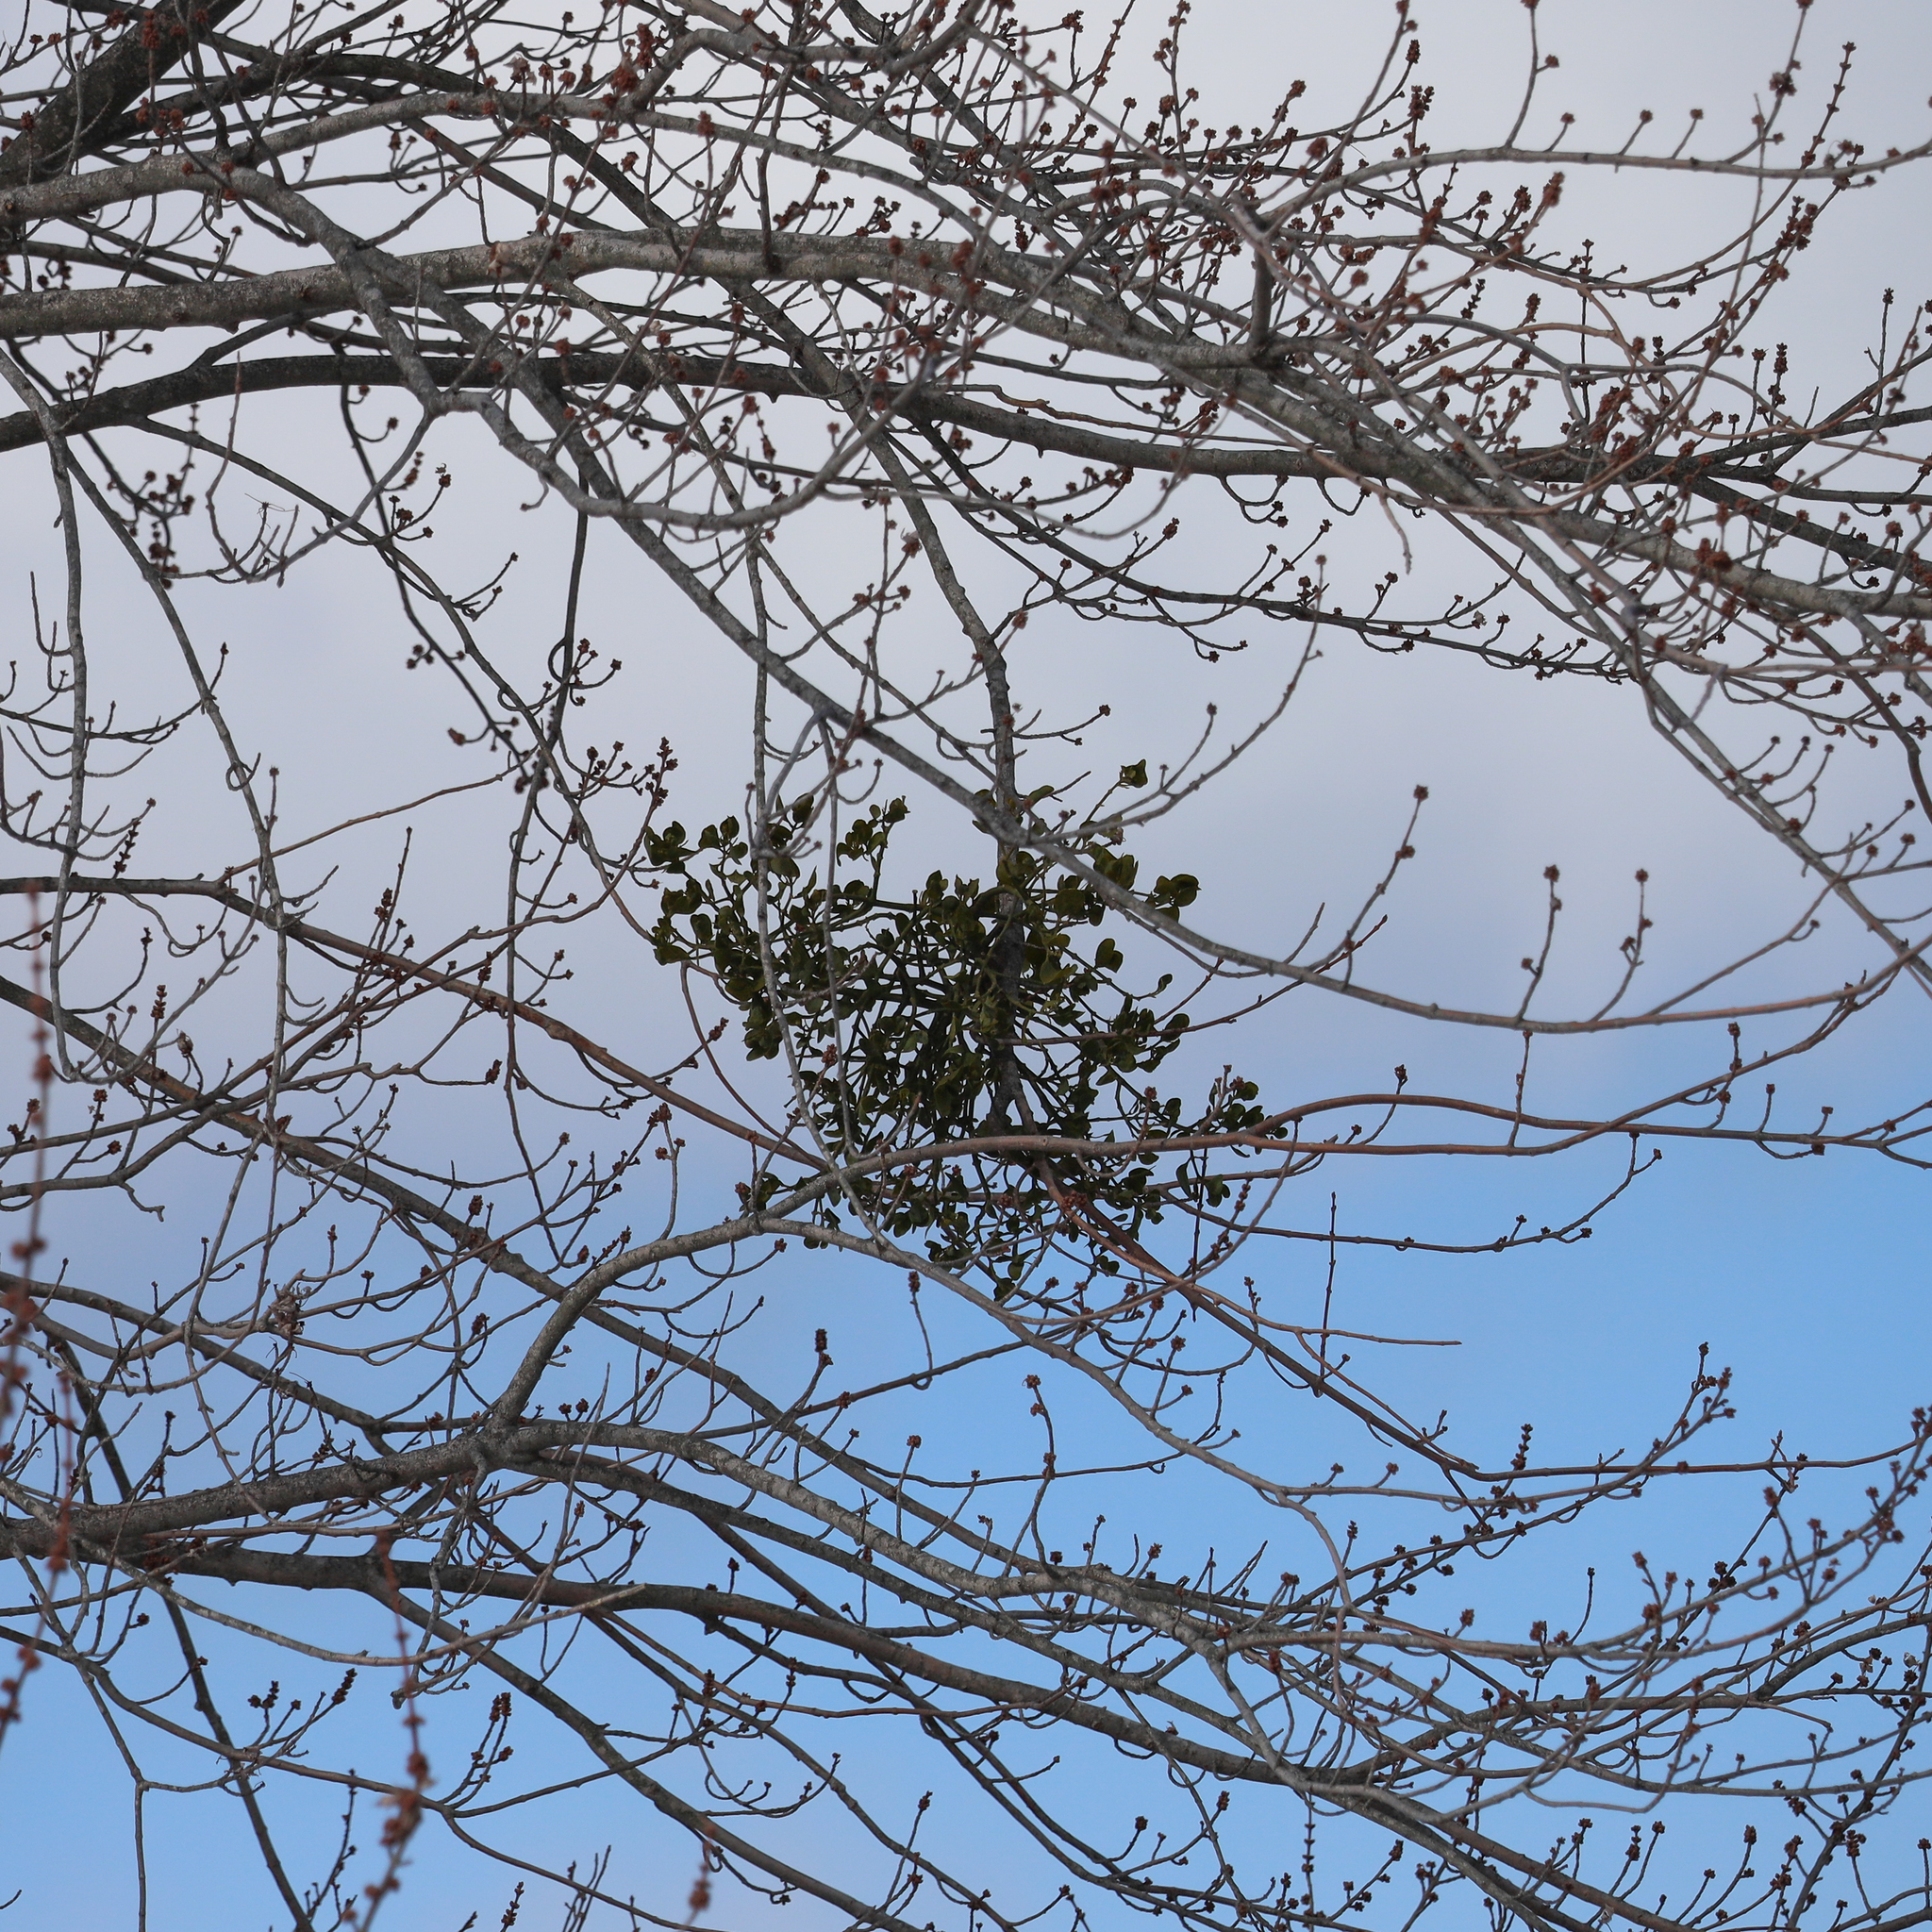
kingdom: Plantae
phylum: Tracheophyta
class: Magnoliopsida
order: Santalales
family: Viscaceae
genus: Phoradendron
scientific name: Phoradendron leucarpum
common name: Pacific mistletoe
